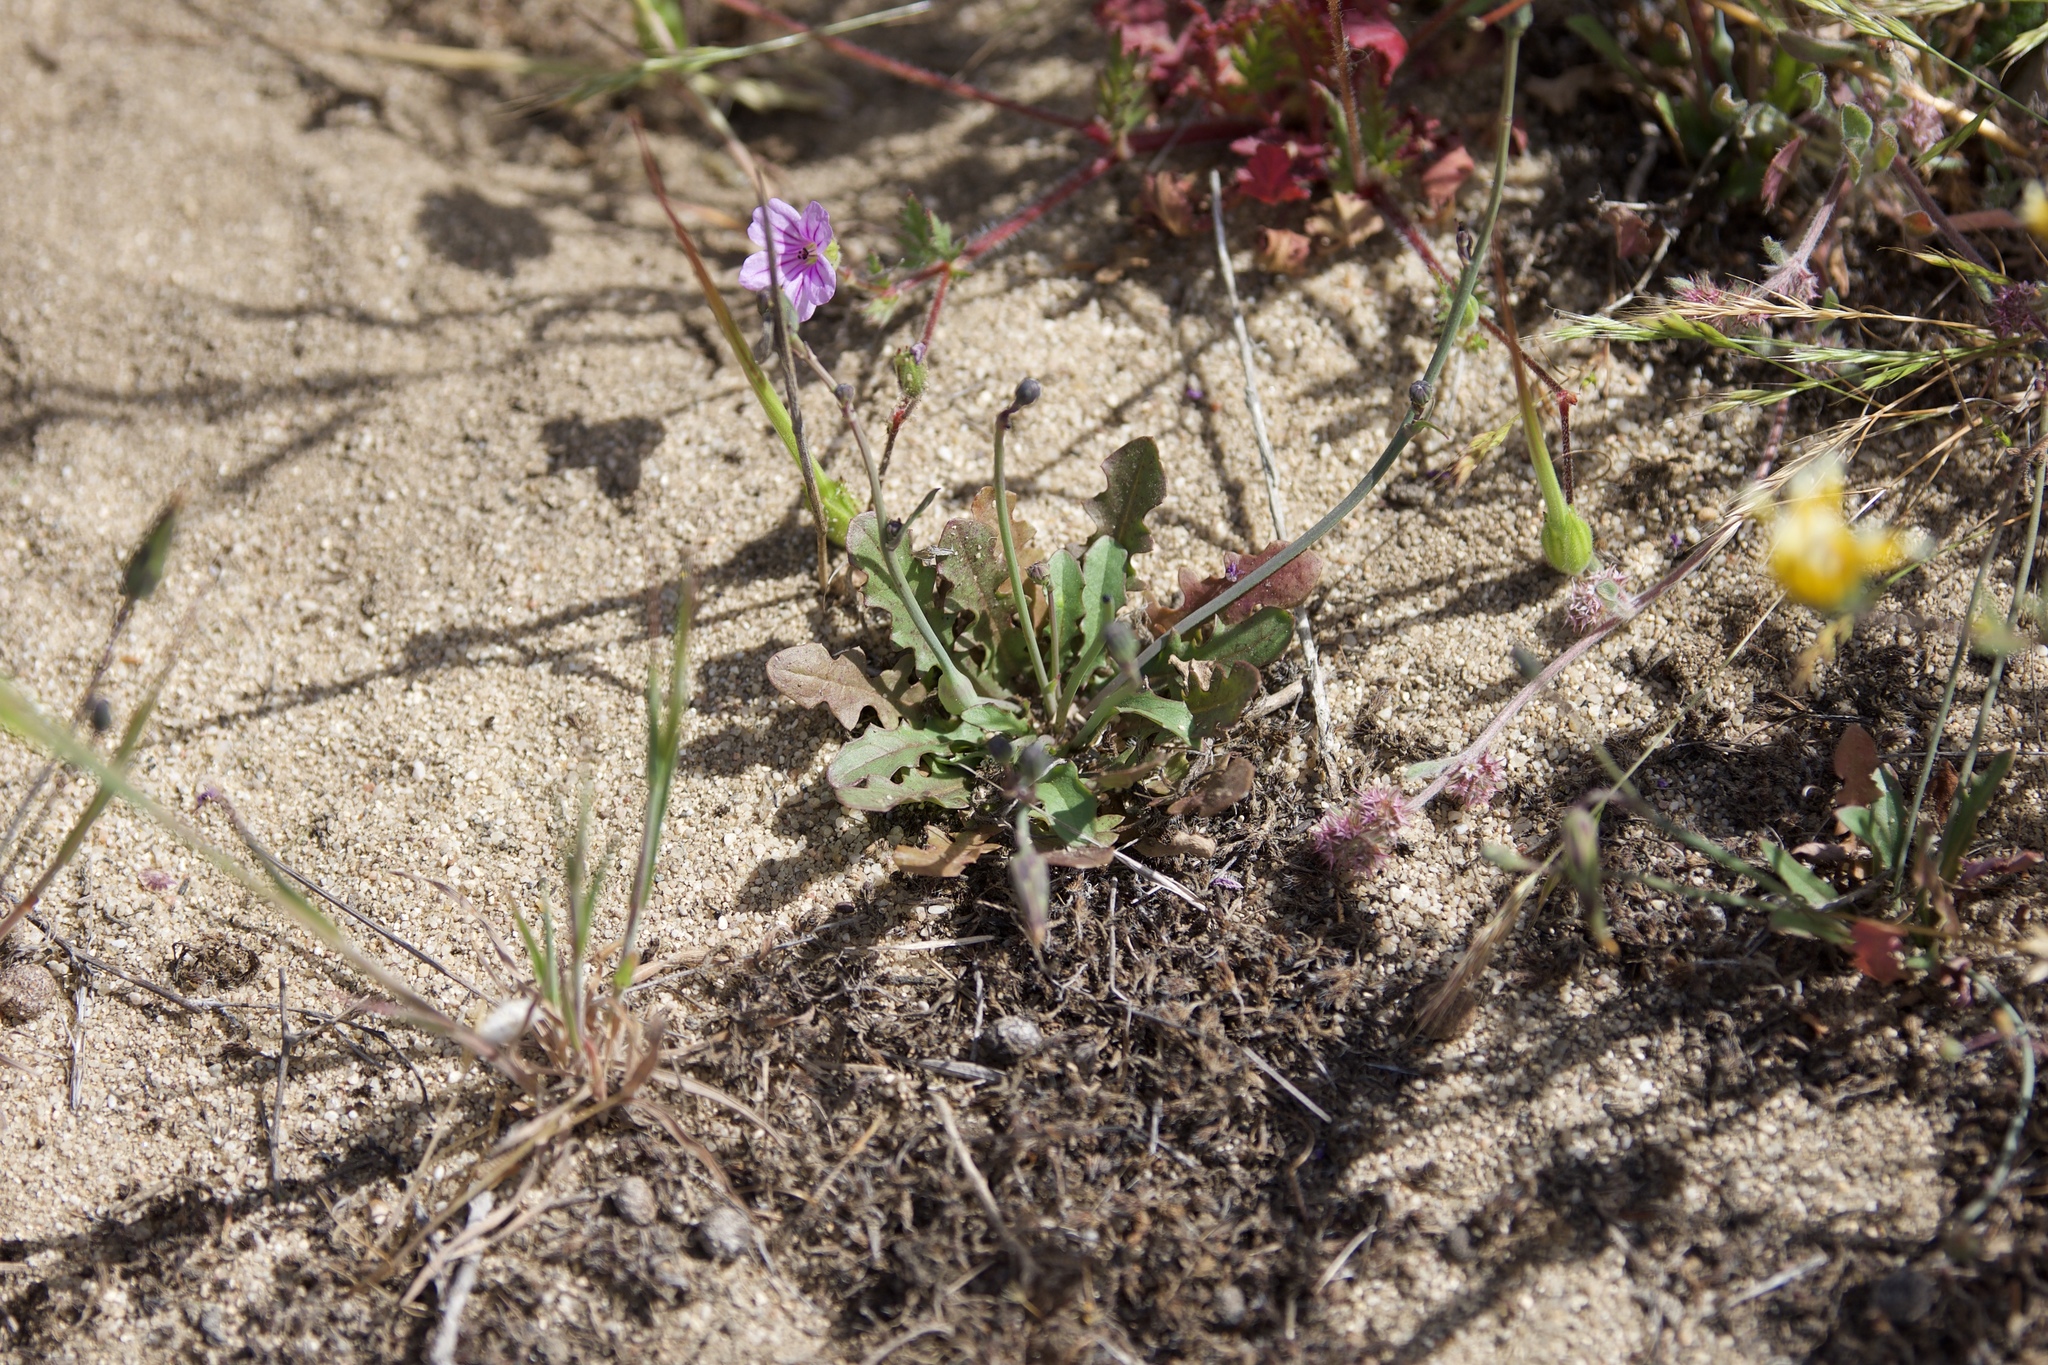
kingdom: Plantae
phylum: Tracheophyta
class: Magnoliopsida
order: Geraniales
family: Geraniaceae
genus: Erodium
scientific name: Erodium botrys
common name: Mediterranean stork's-bill
